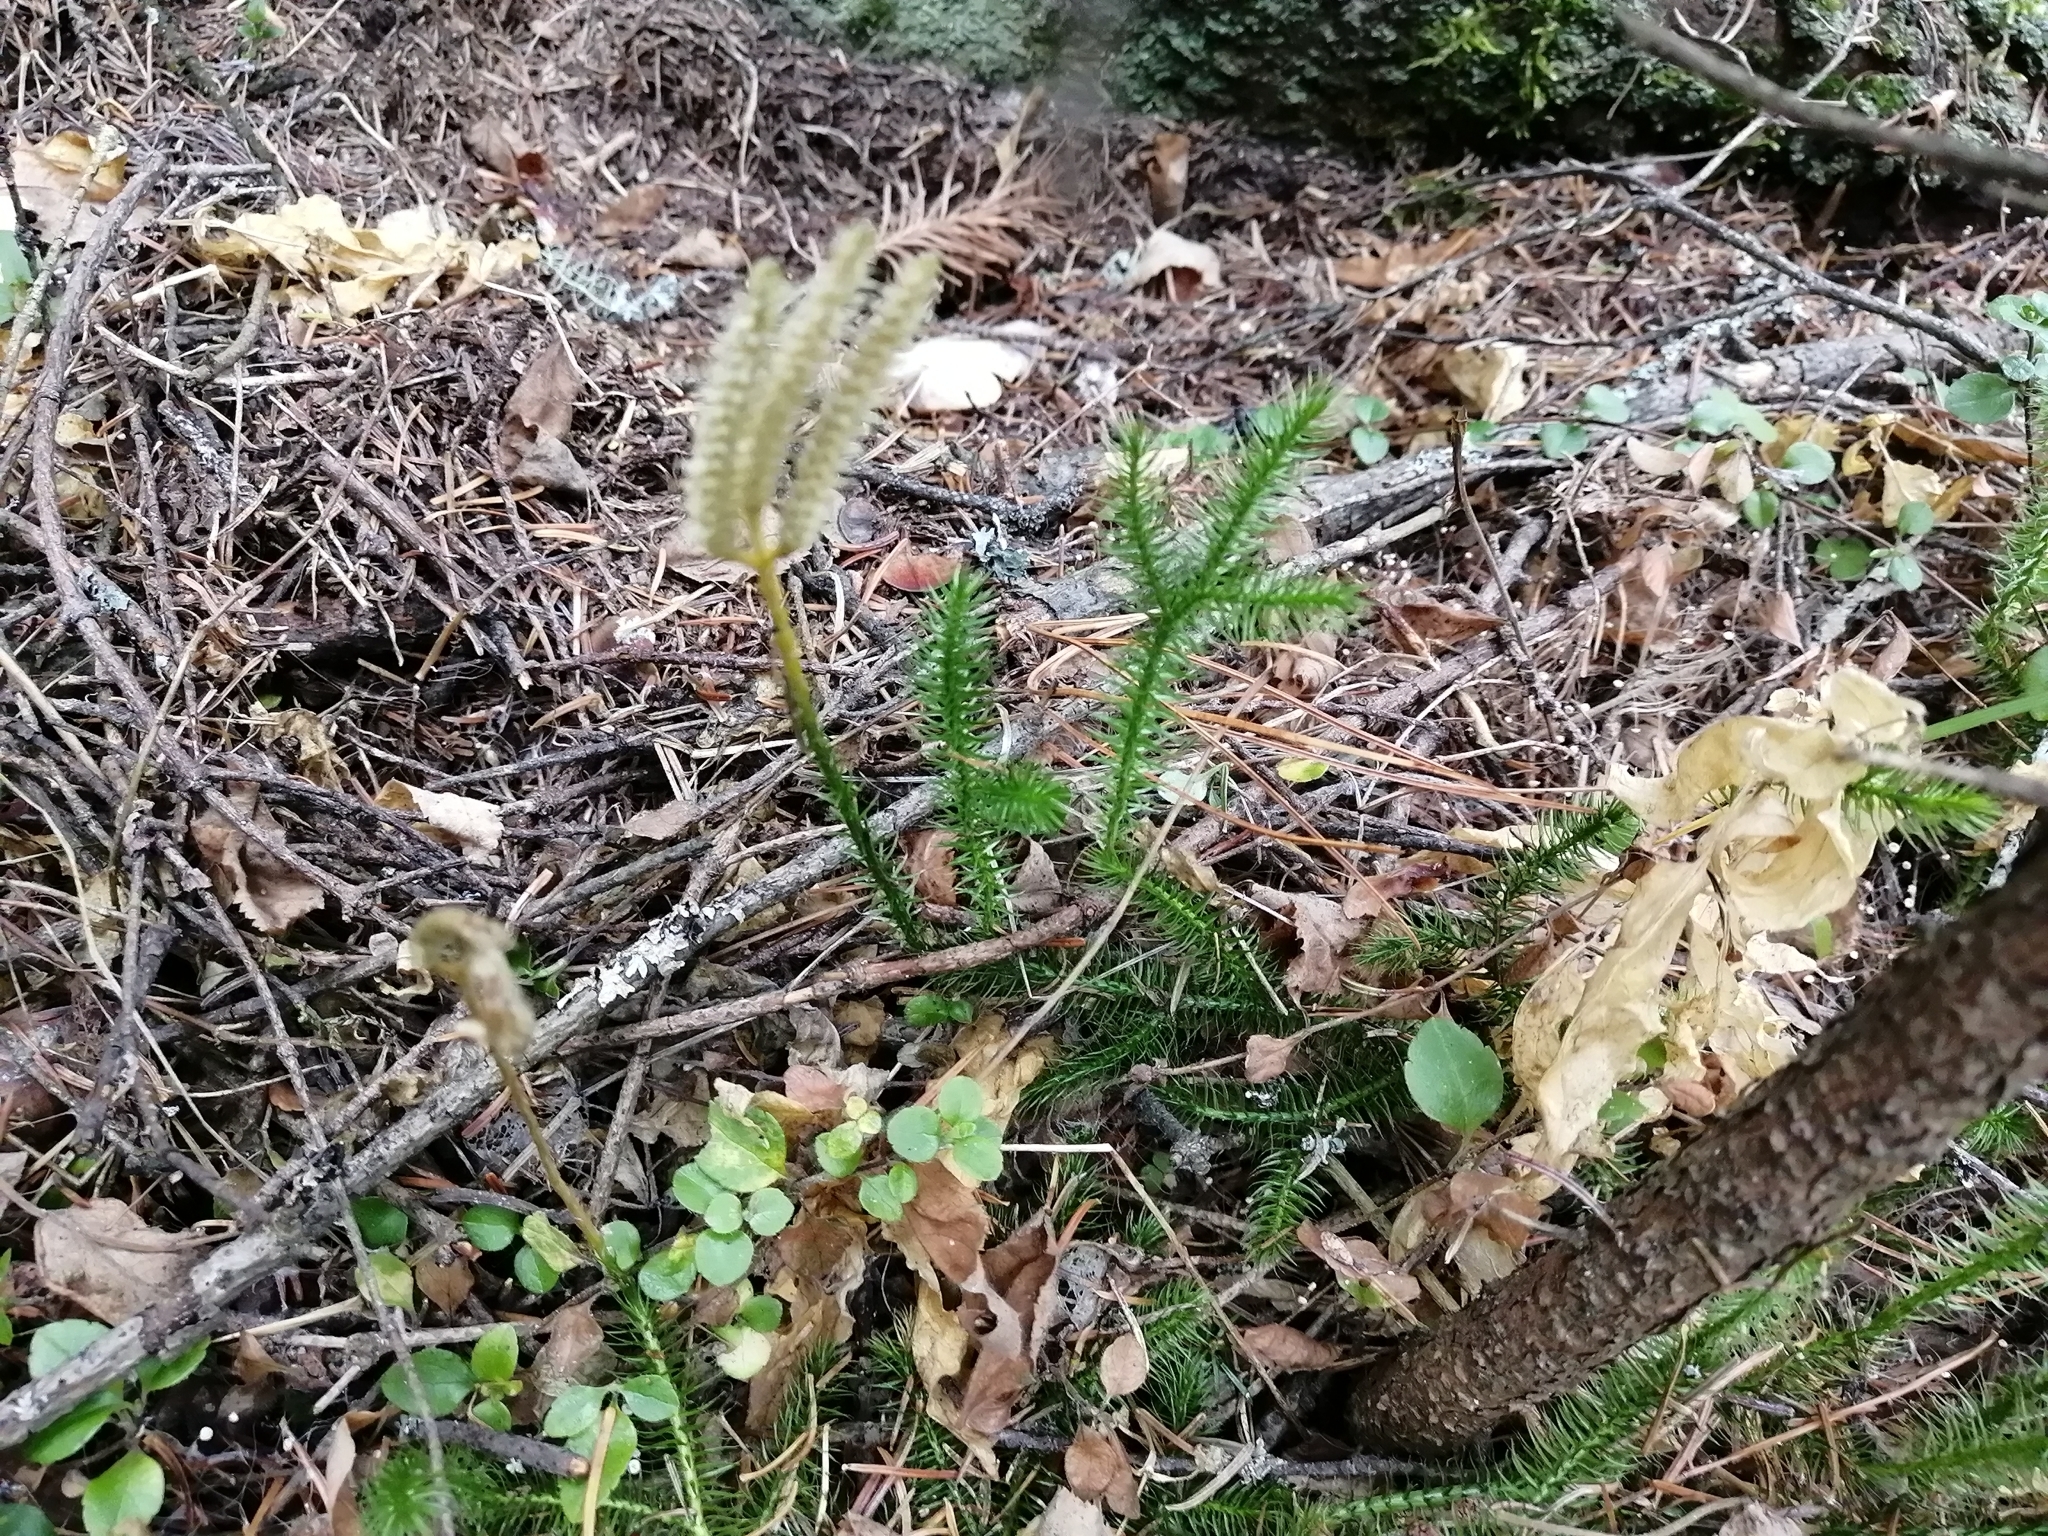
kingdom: Plantae
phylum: Tracheophyta
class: Lycopodiopsida
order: Lycopodiales
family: Lycopodiaceae
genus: Lycopodium
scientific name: Lycopodium clavatum
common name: Stag's-horn clubmoss
